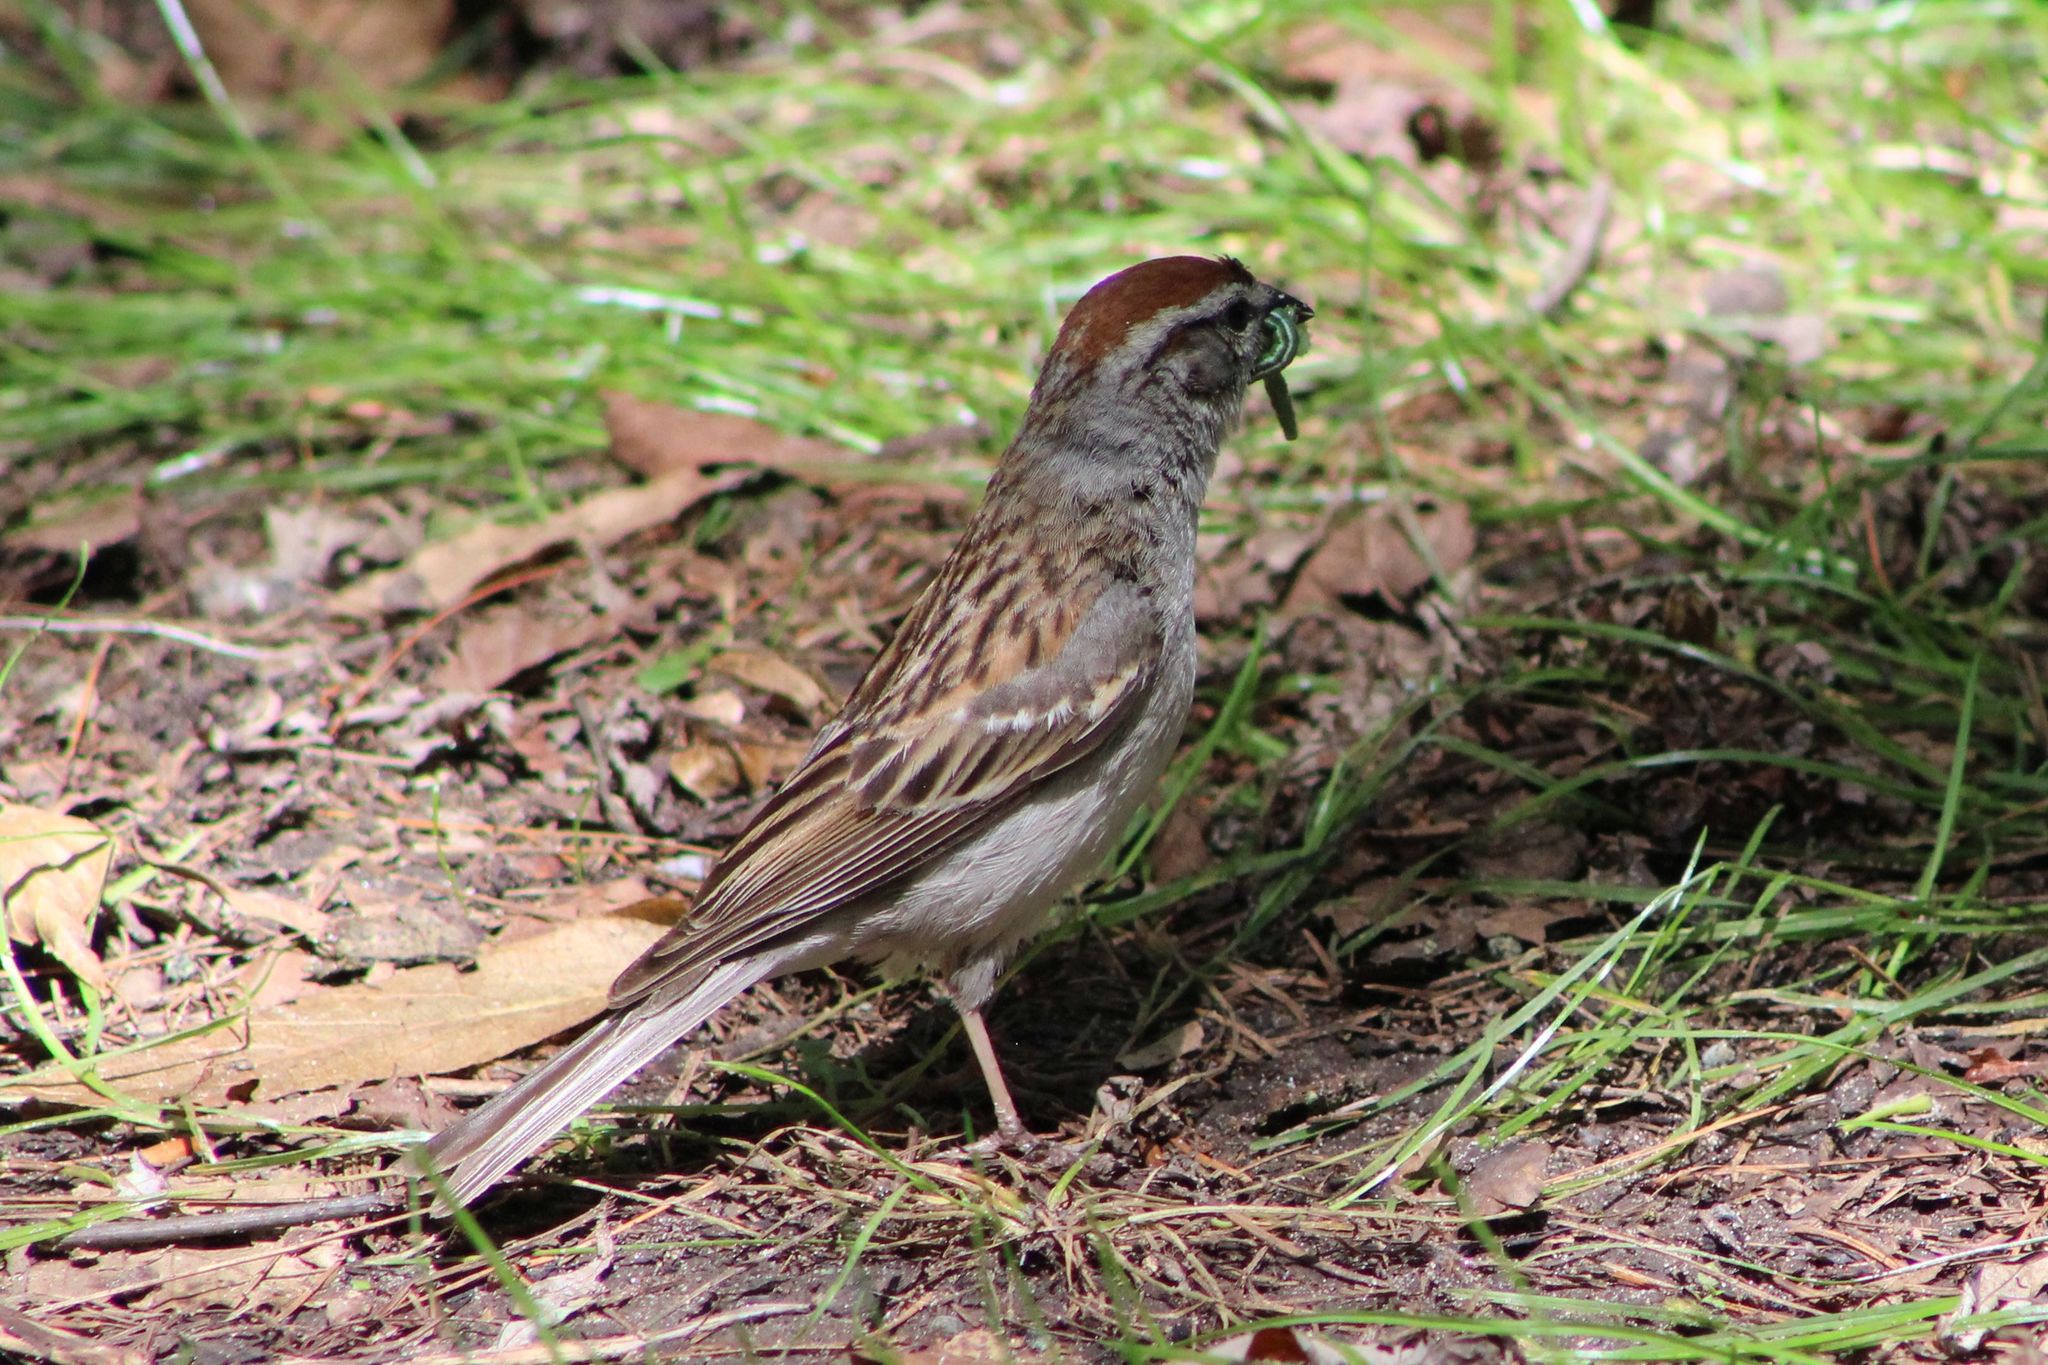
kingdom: Animalia
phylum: Chordata
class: Aves
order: Passeriformes
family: Passerellidae
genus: Spizella
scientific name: Spizella passerina
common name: Chipping sparrow
